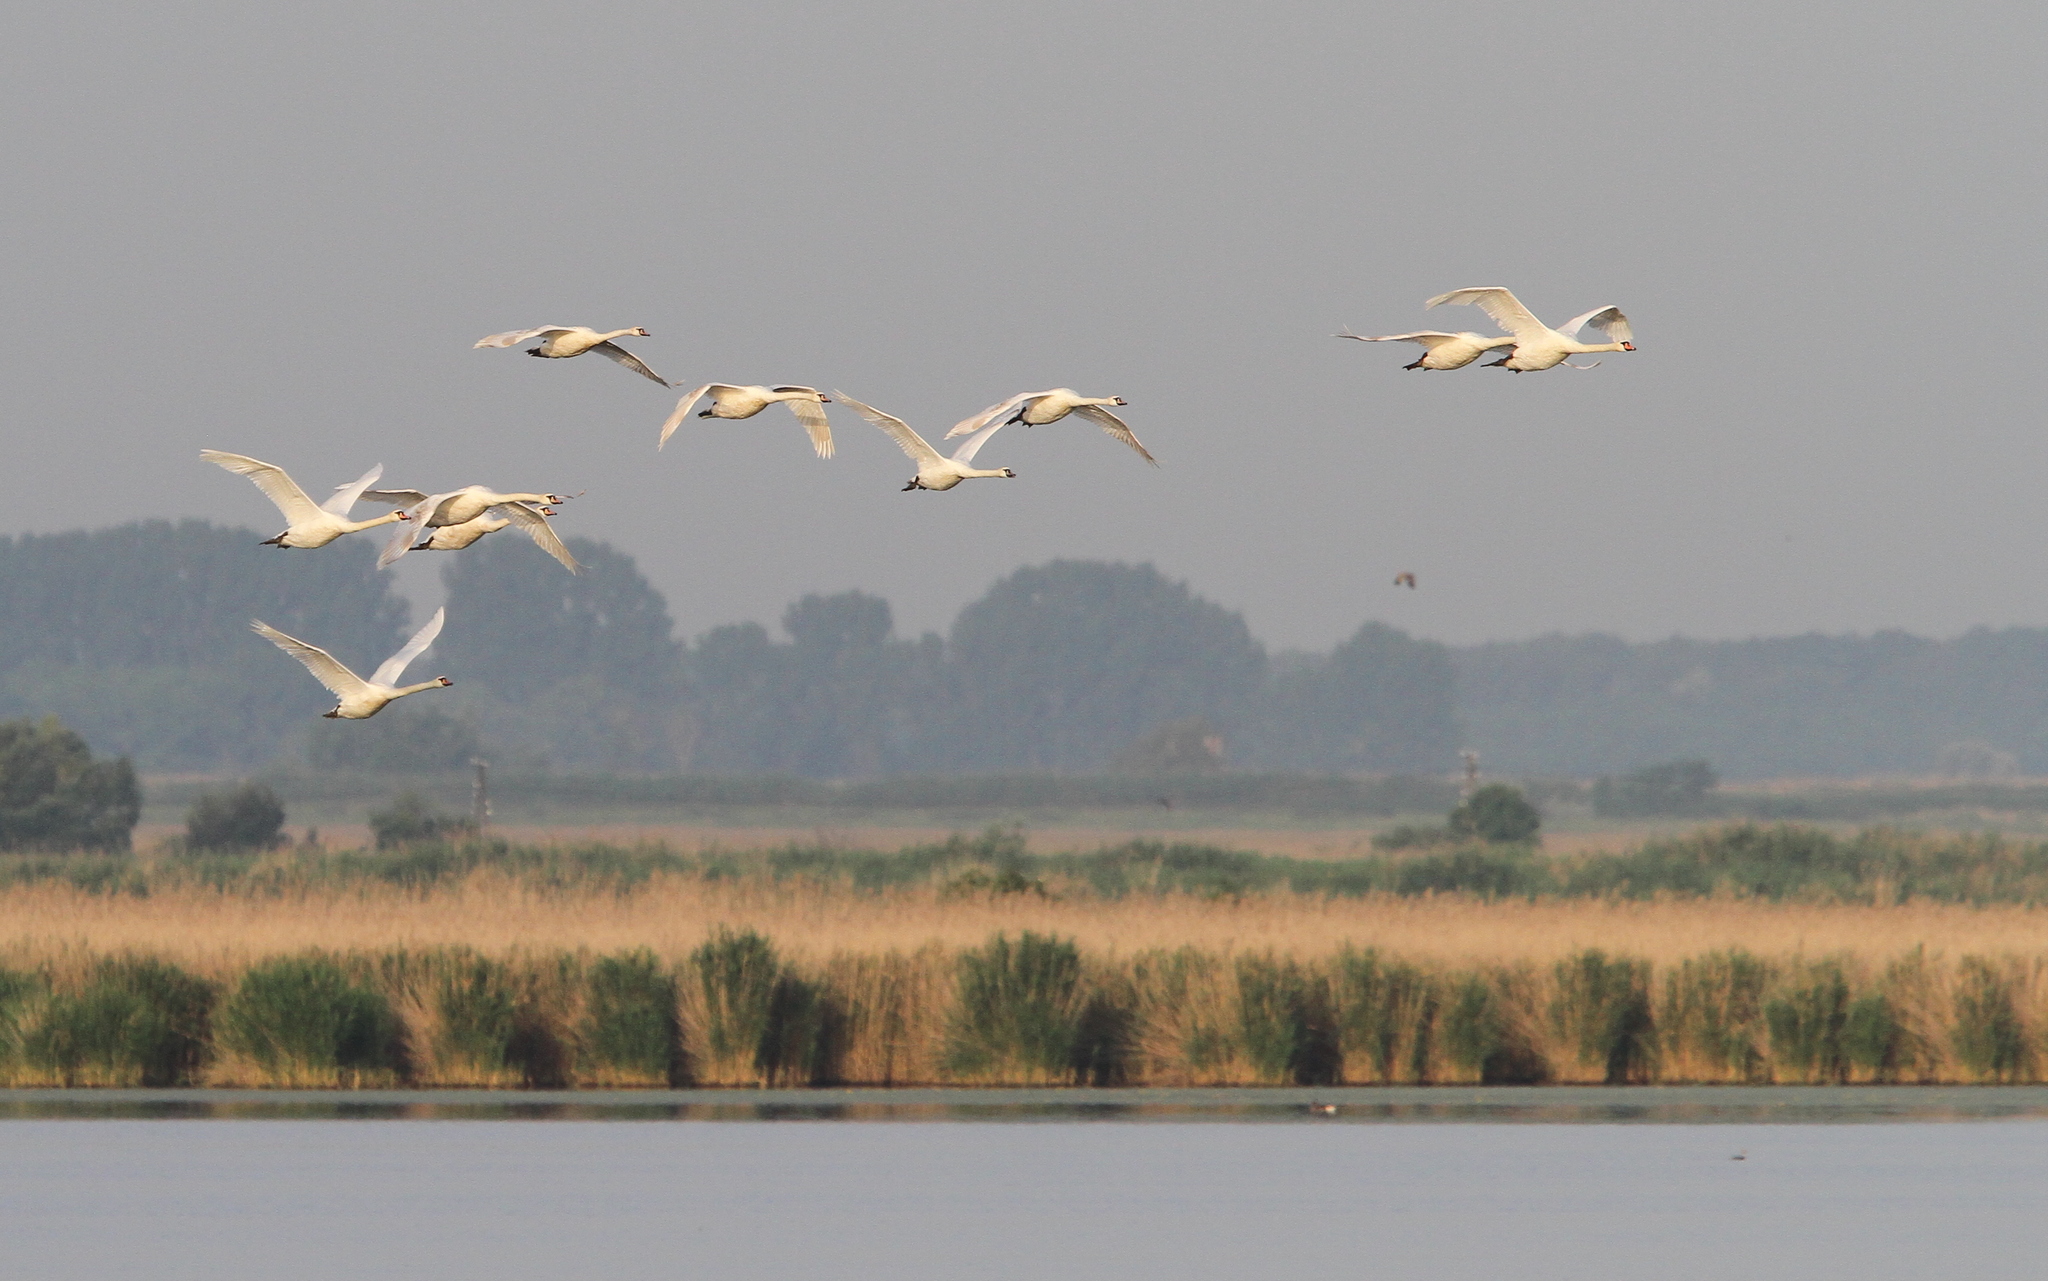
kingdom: Animalia
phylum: Chordata
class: Aves
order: Anseriformes
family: Anatidae
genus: Cygnus
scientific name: Cygnus olor
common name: Mute swan
